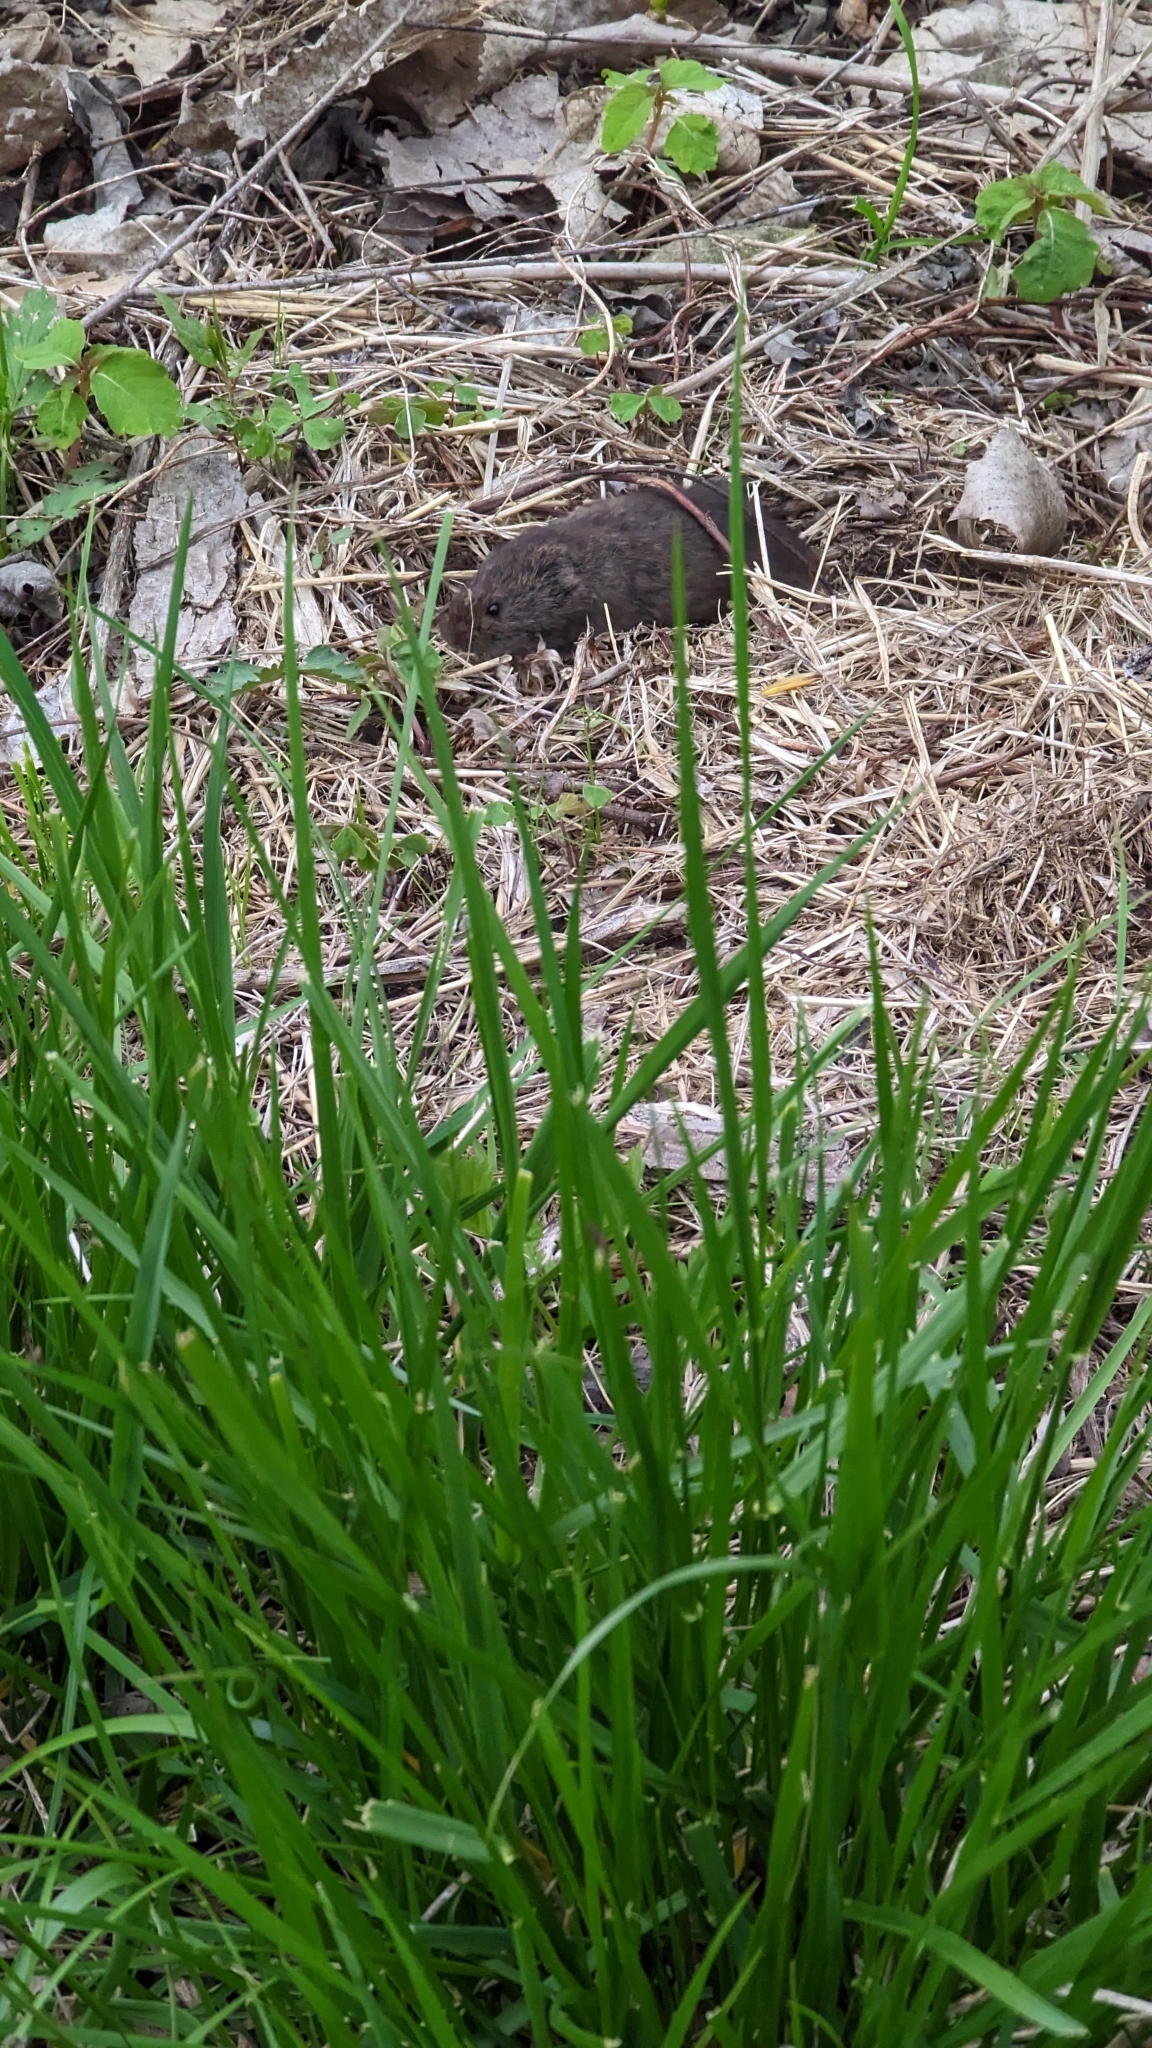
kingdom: Animalia
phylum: Chordata
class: Mammalia
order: Rodentia
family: Cricetidae
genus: Microtus
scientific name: Microtus pennsylvanicus
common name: Meadow vole
